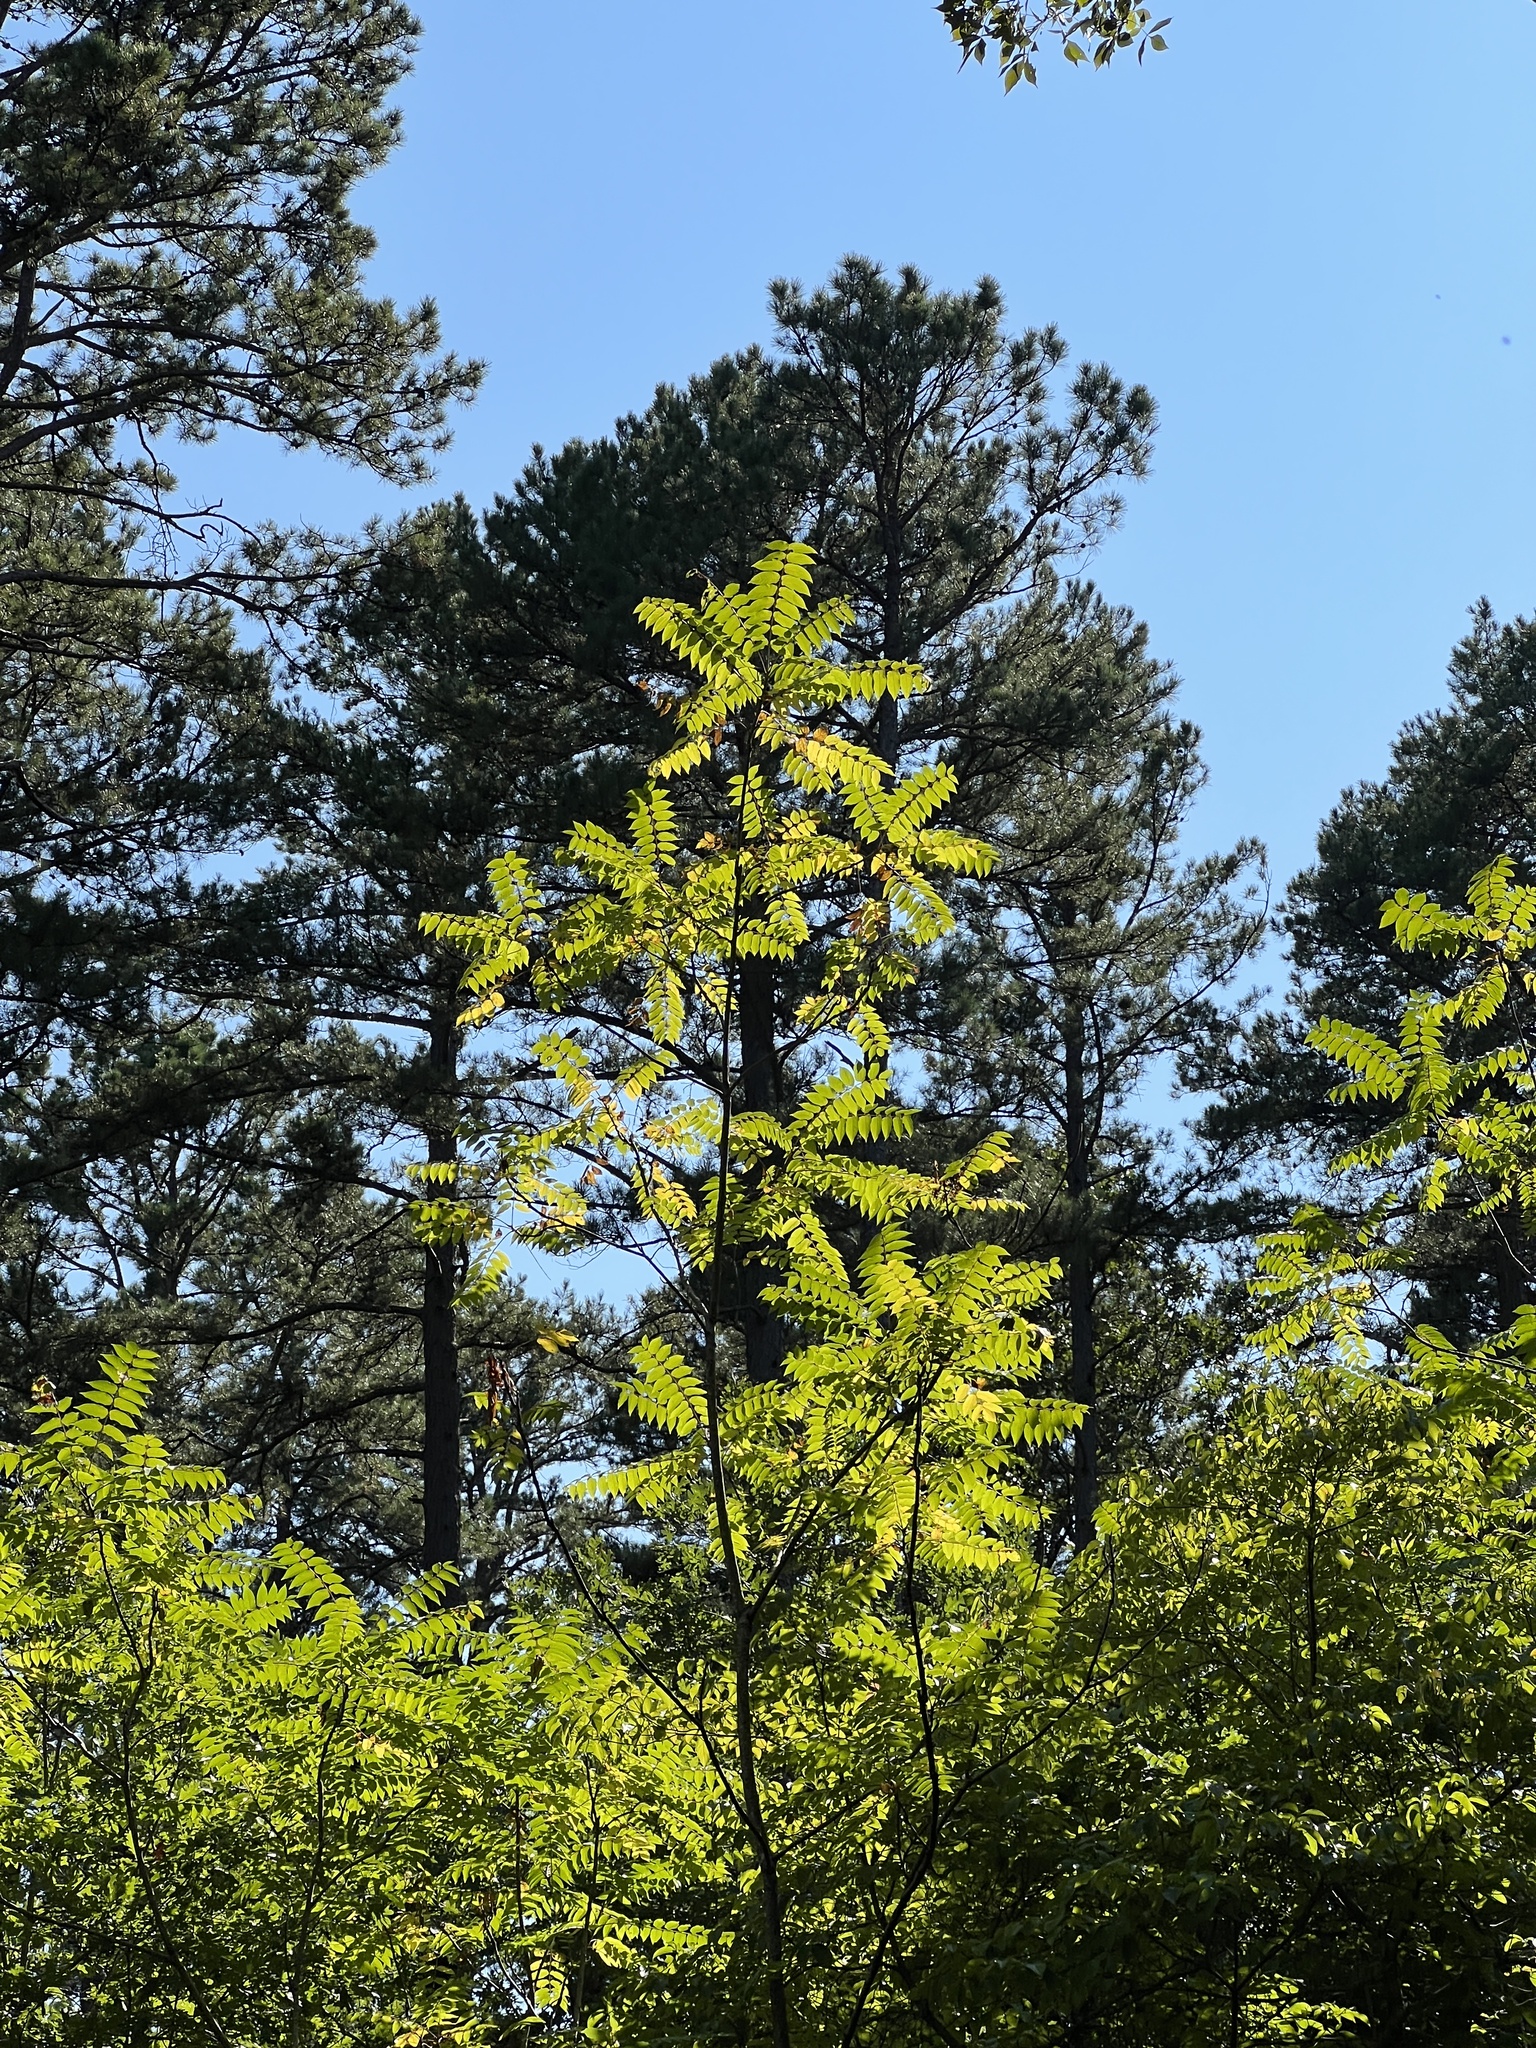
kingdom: Plantae
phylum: Tracheophyta
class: Magnoliopsida
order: Sapindales
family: Simaroubaceae
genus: Ailanthus
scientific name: Ailanthus altissima
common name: Tree-of-heaven
